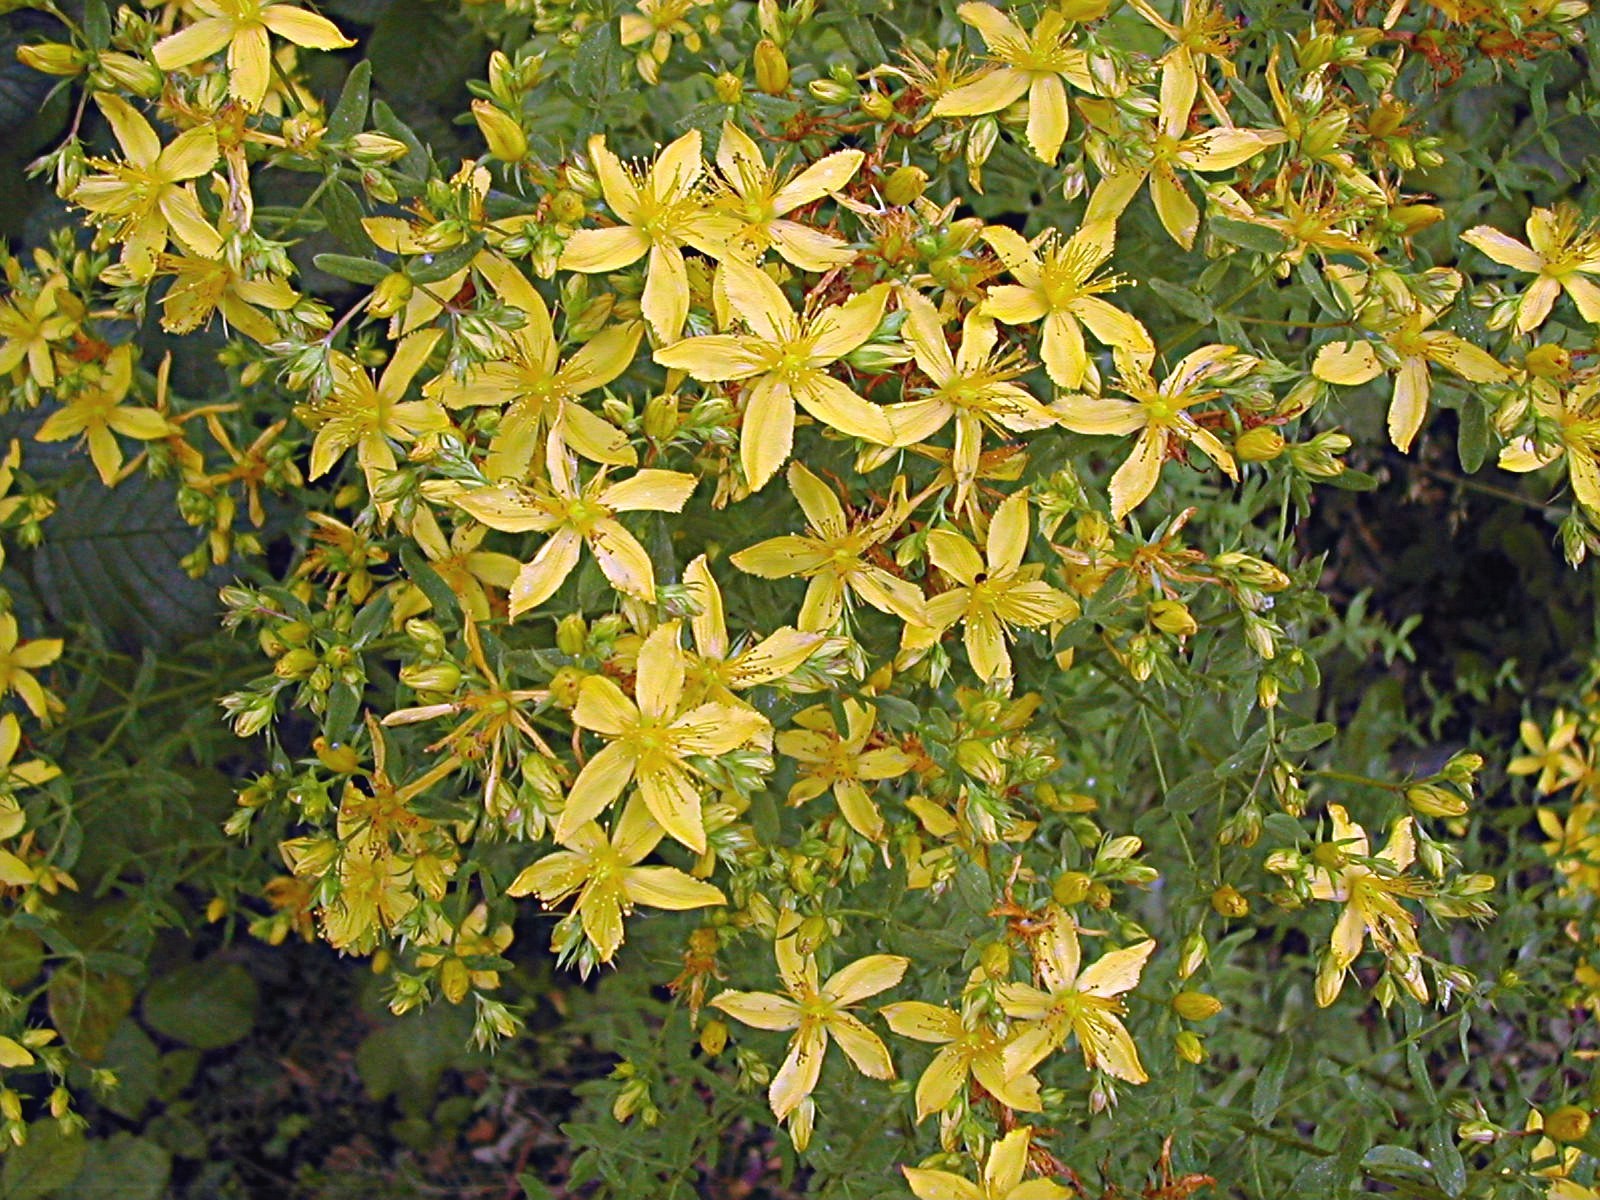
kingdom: Plantae
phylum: Tracheophyta
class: Magnoliopsida
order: Malpighiales
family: Hypericaceae
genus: Hypericum
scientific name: Hypericum perforatum
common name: Common st. johnswort
